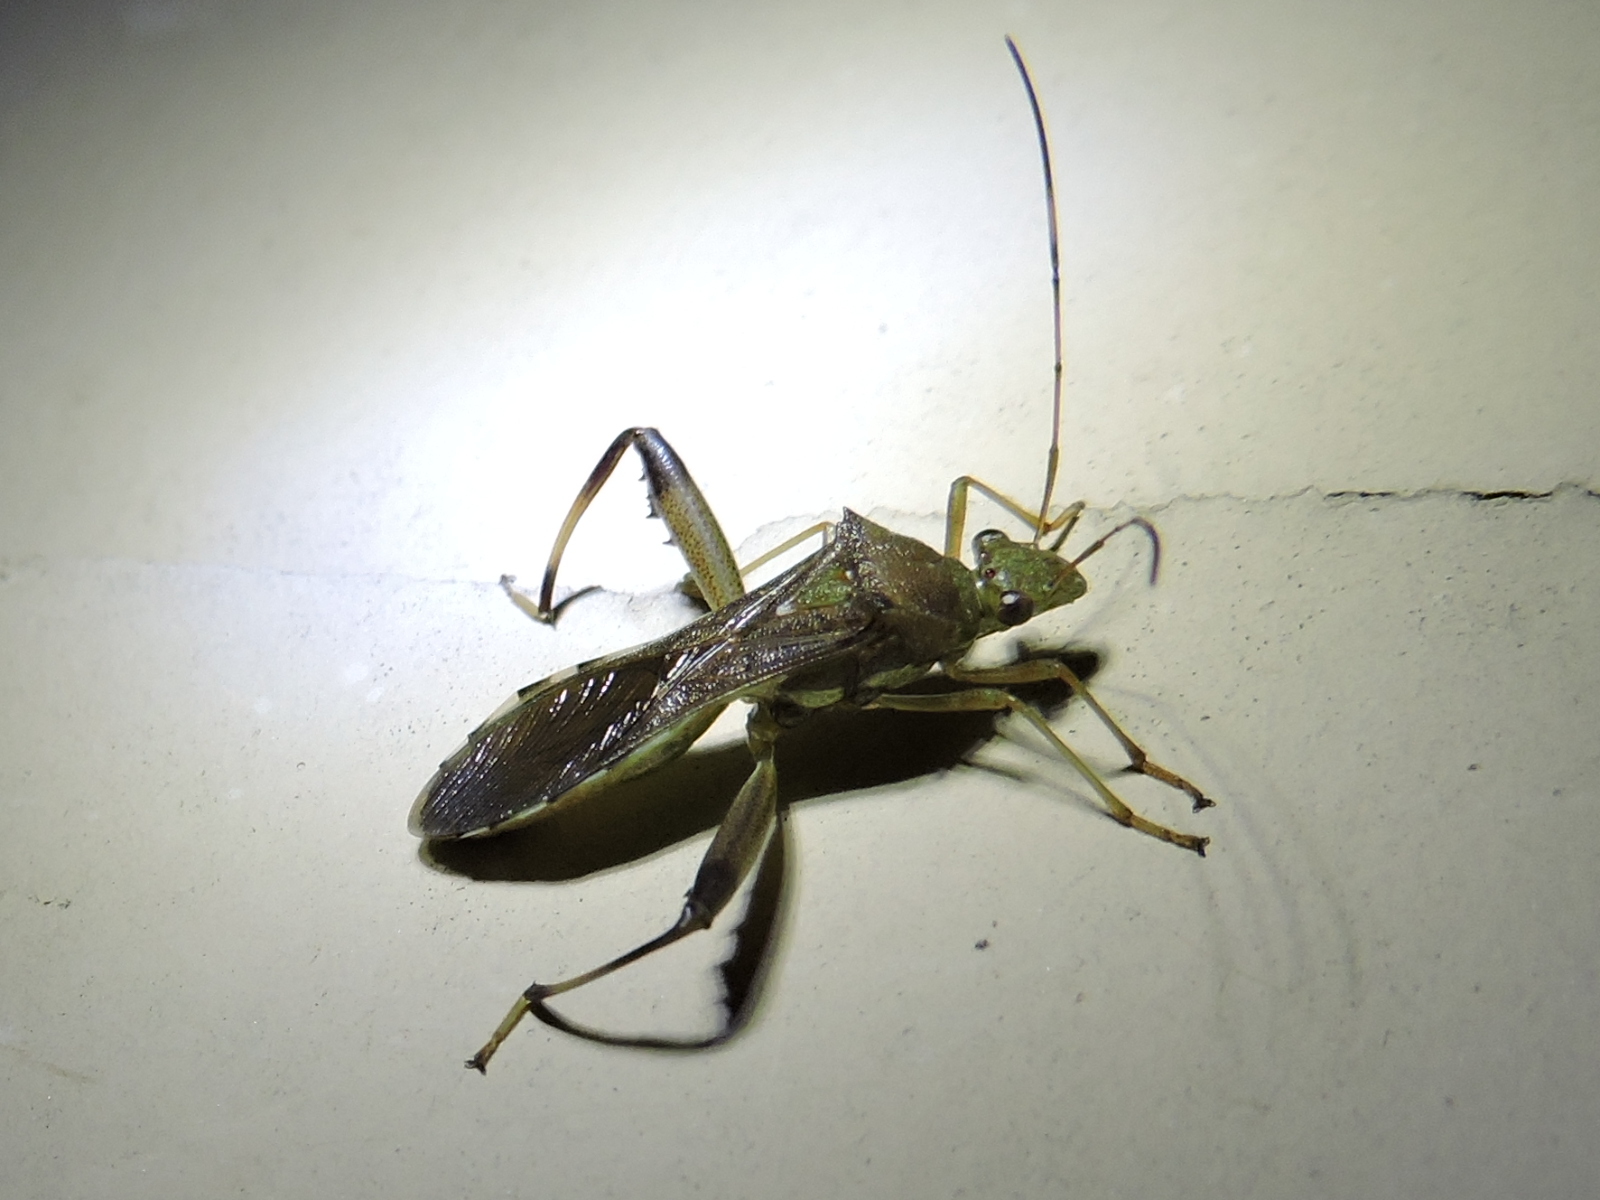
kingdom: Animalia
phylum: Arthropoda
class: Insecta
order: Hemiptera
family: Alydidae
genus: Hyalymenus
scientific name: Hyalymenus tarsatus
